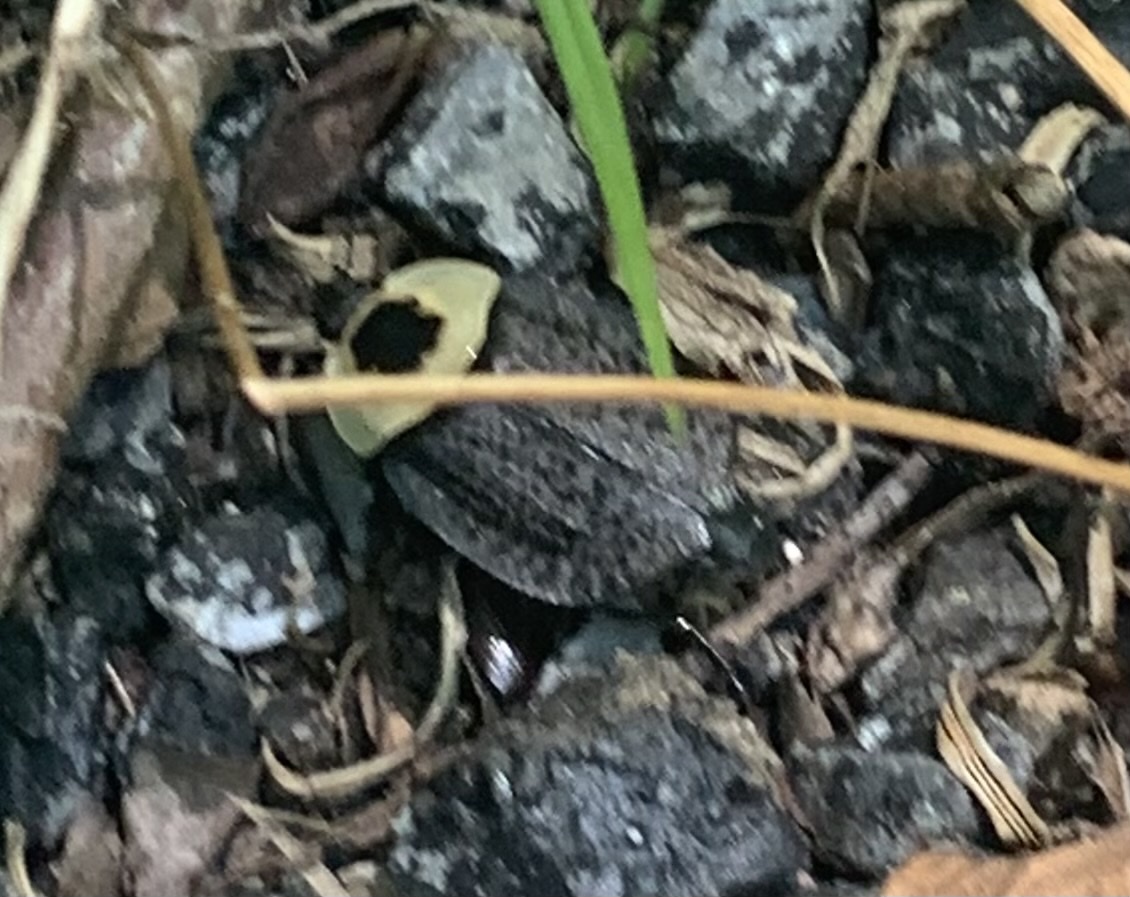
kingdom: Animalia
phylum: Arthropoda
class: Insecta
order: Coleoptera
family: Staphylinidae
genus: Necrophila
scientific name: Necrophila americana
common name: American carrion beetle
